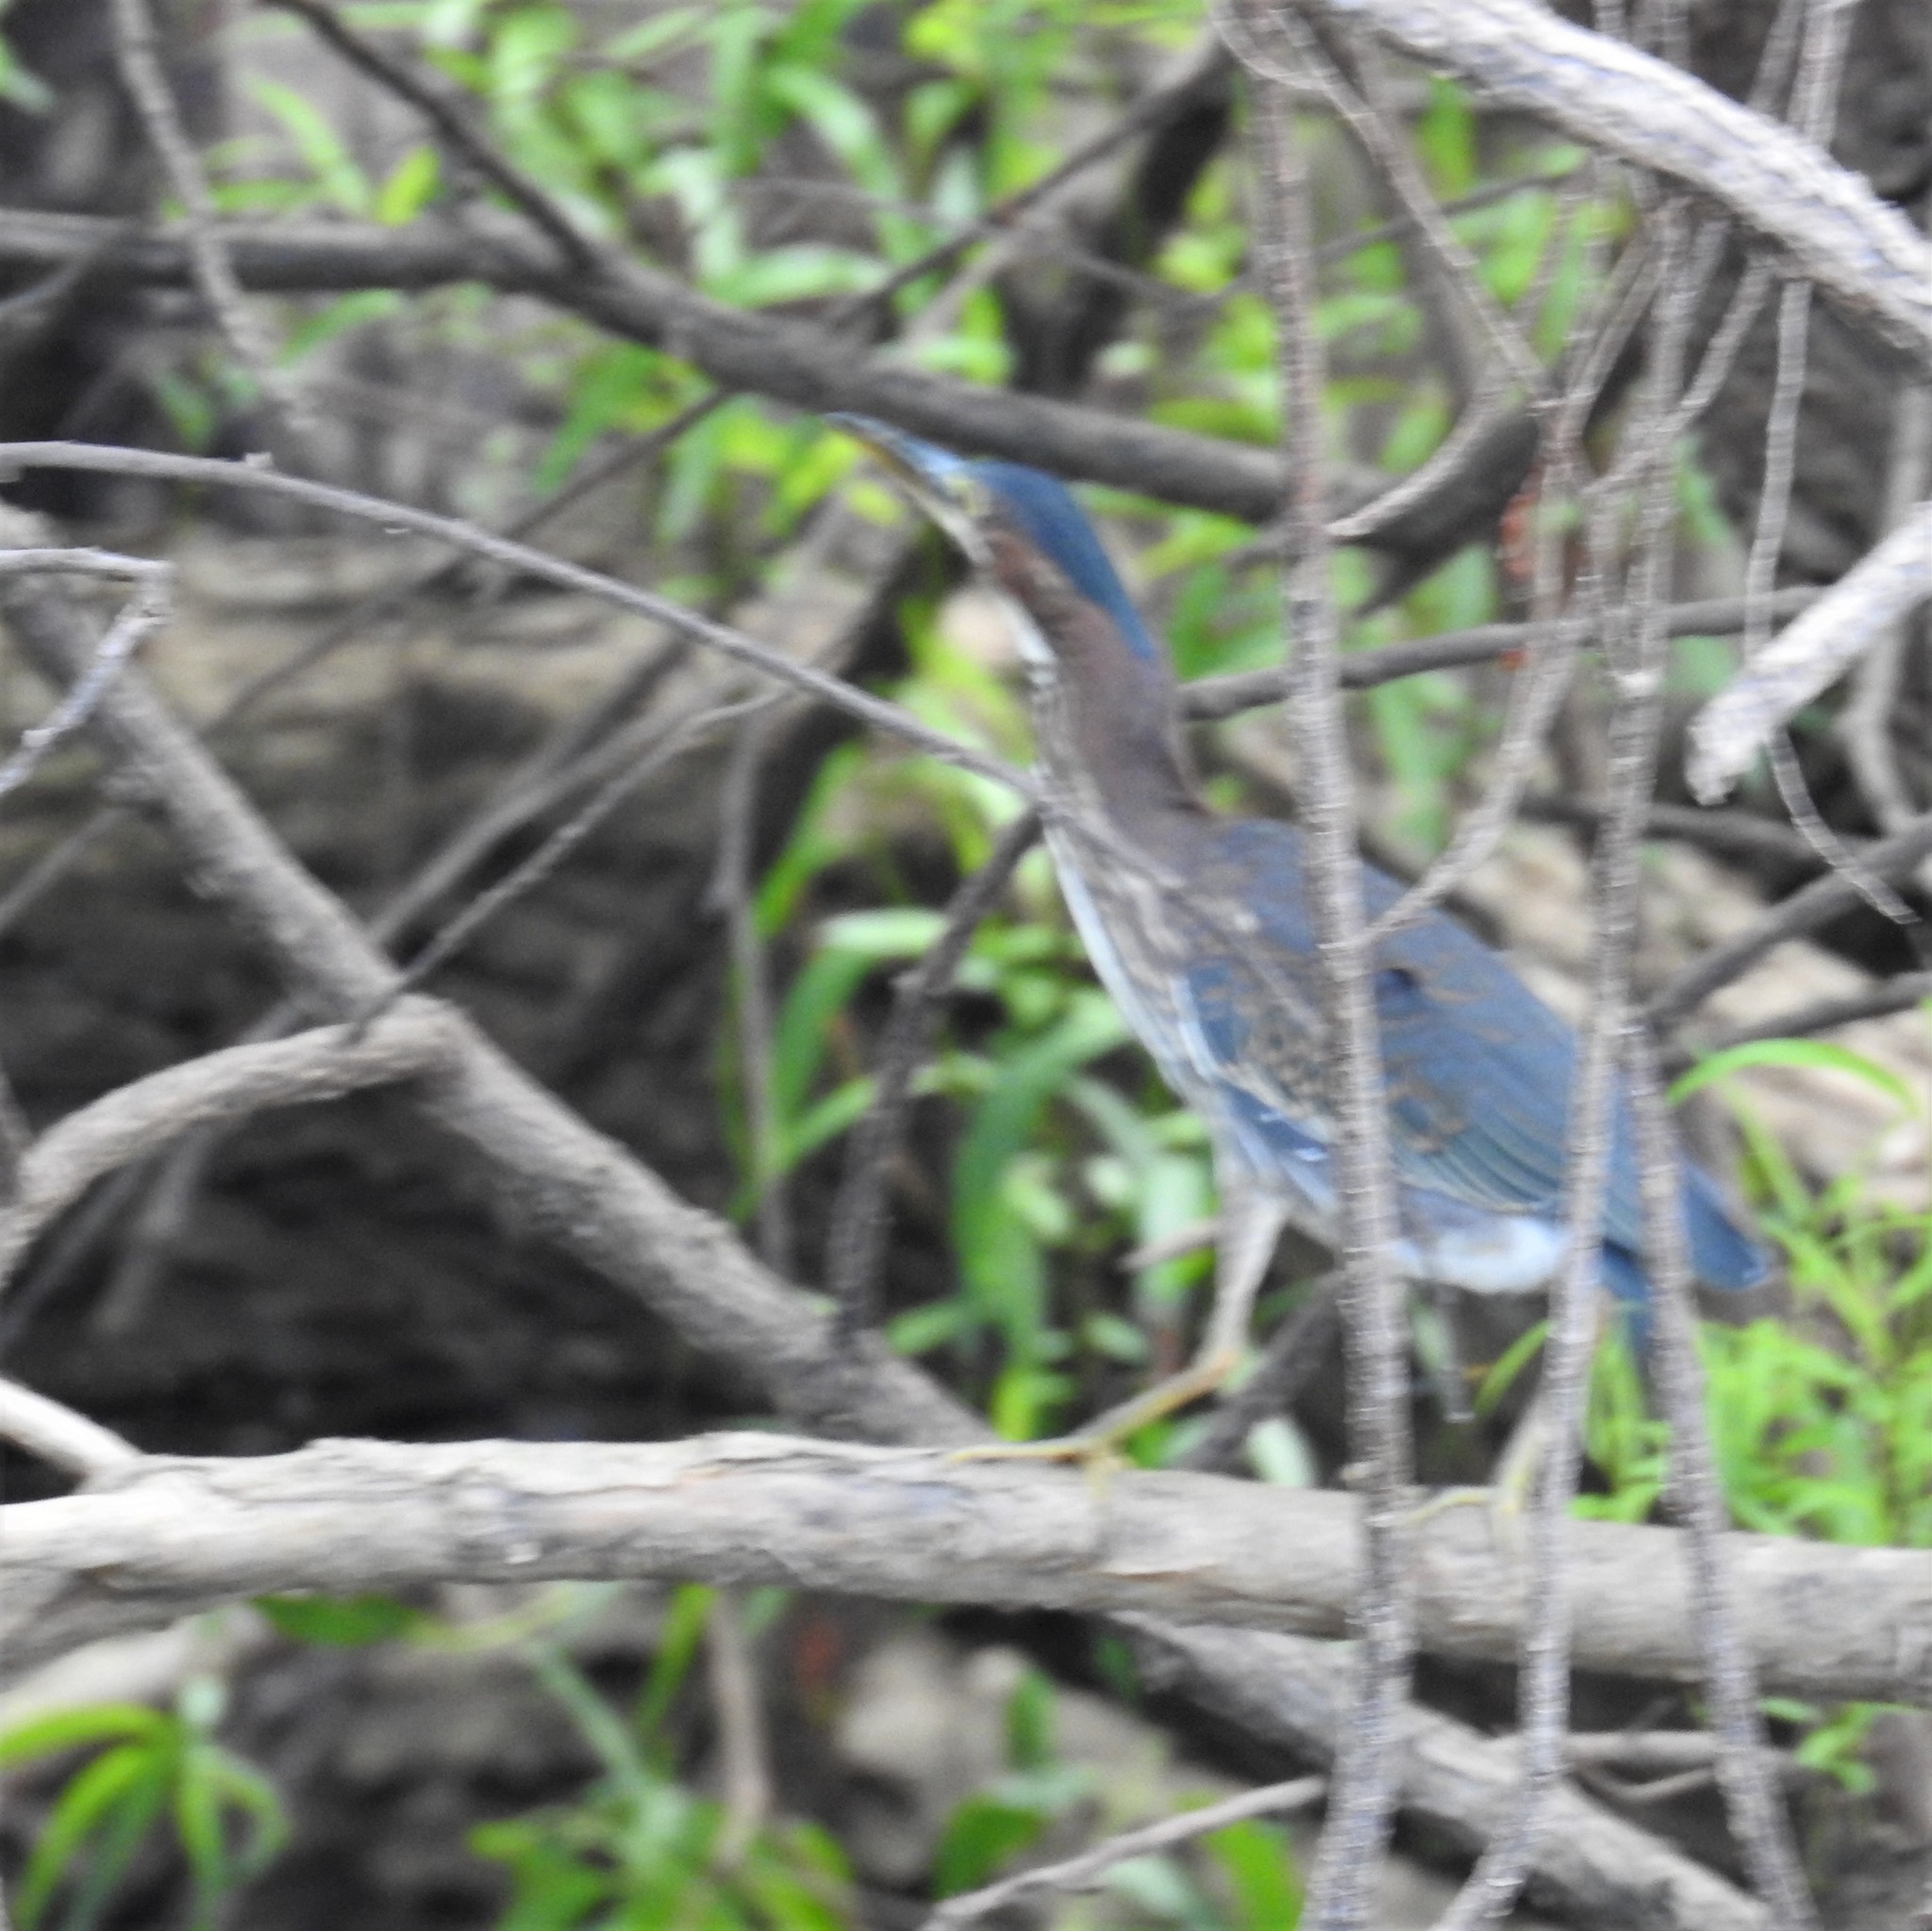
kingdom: Animalia
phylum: Chordata
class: Aves
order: Pelecaniformes
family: Ardeidae
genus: Butorides
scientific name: Butorides virescens
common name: Green heron
